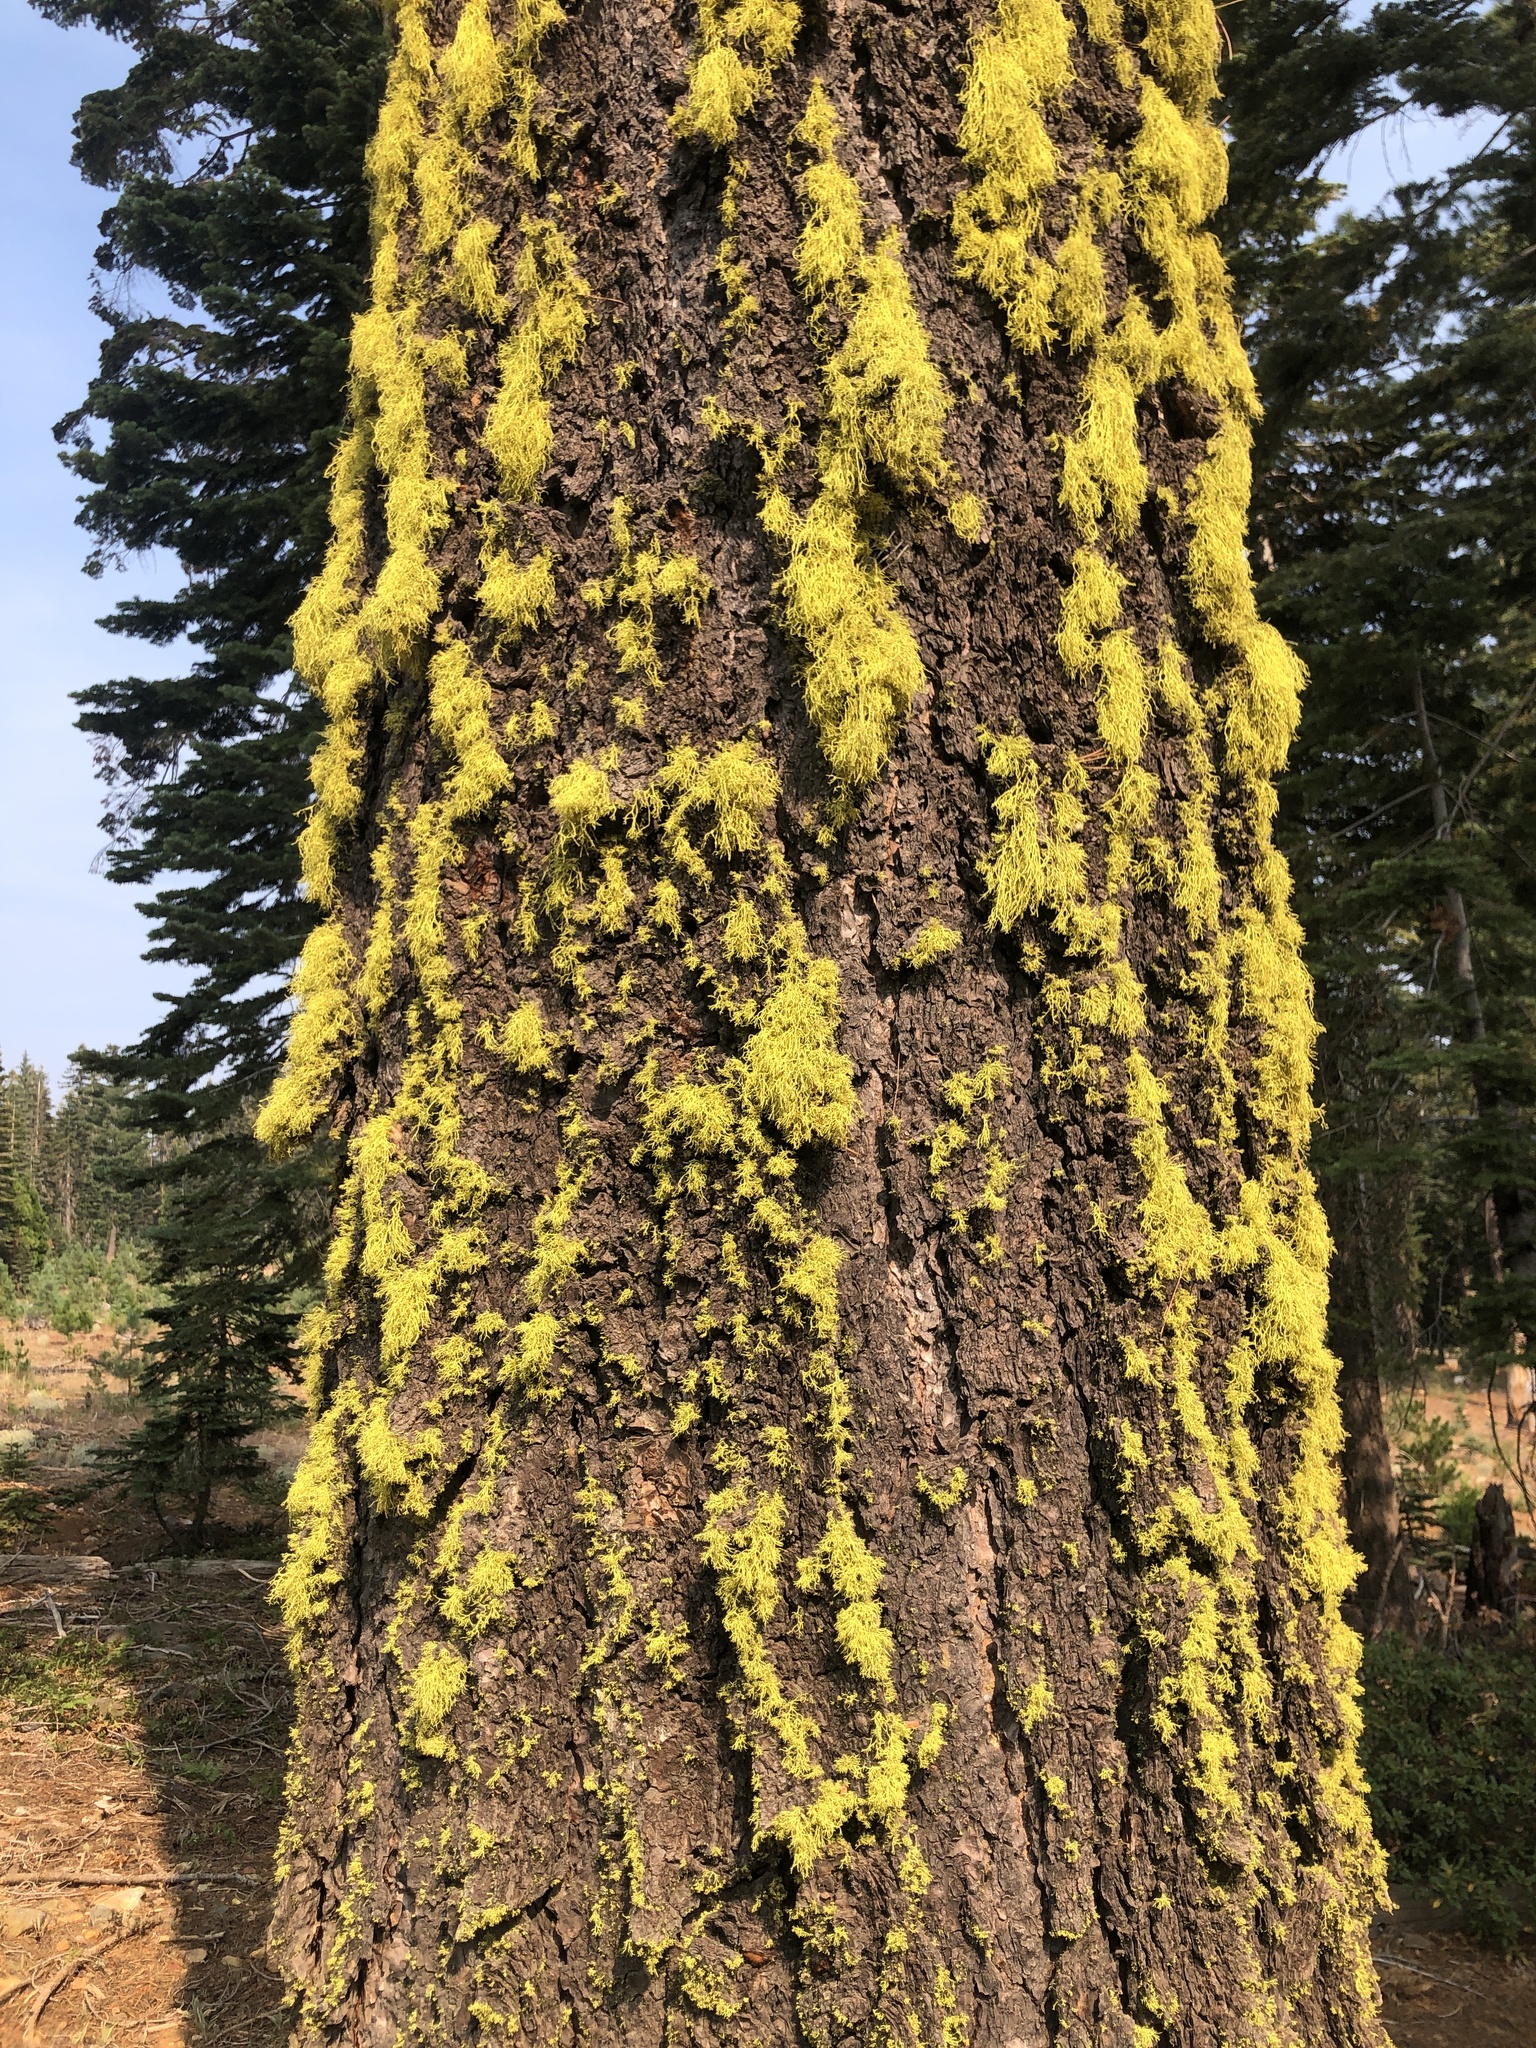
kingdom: Fungi
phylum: Ascomycota
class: Lecanoromycetes
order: Lecanorales
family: Parmeliaceae
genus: Letharia
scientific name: Letharia vulpina
